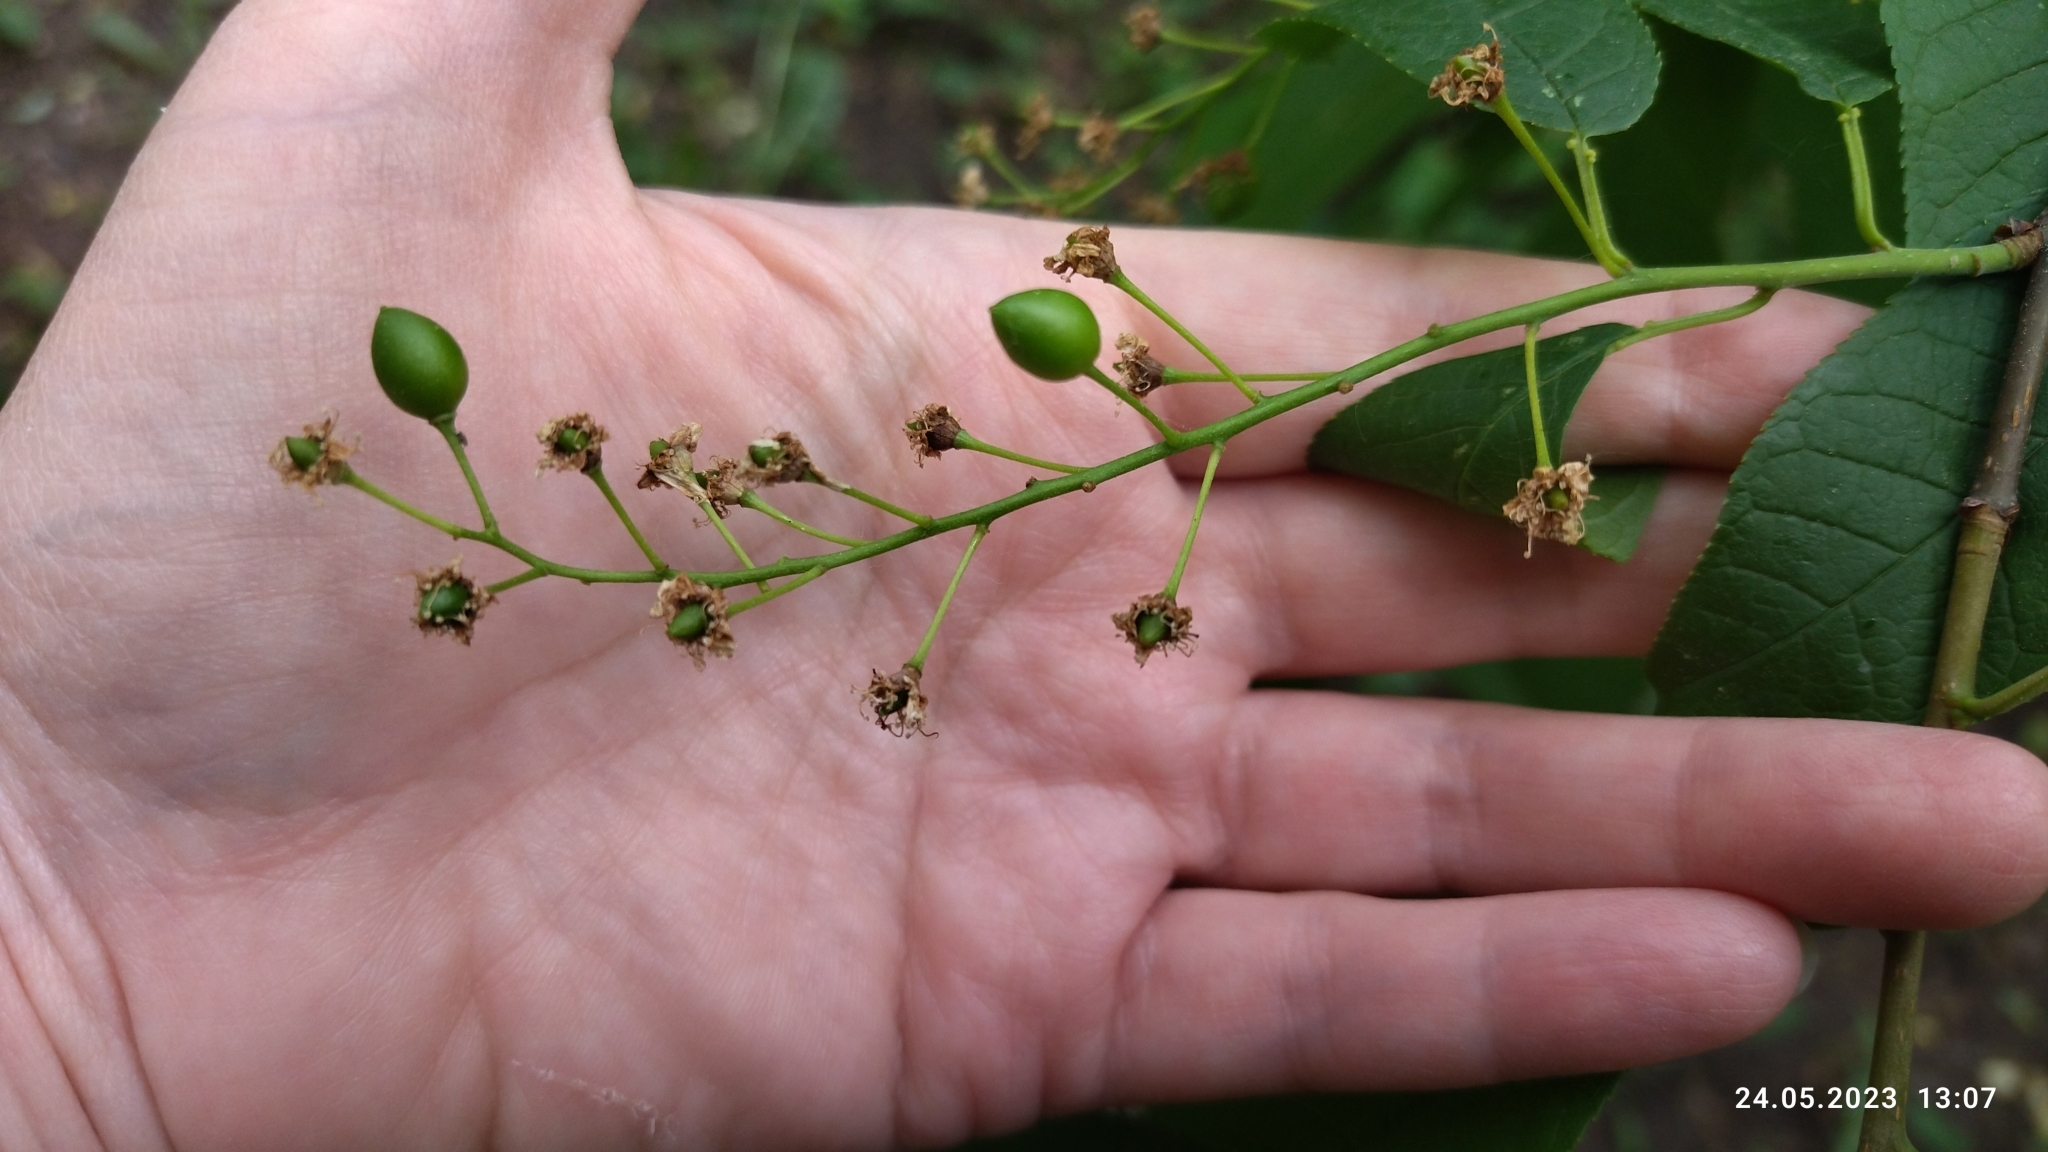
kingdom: Plantae
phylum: Tracheophyta
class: Magnoliopsida
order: Rosales
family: Rosaceae
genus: Prunus
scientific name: Prunus padus
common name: Bird cherry
